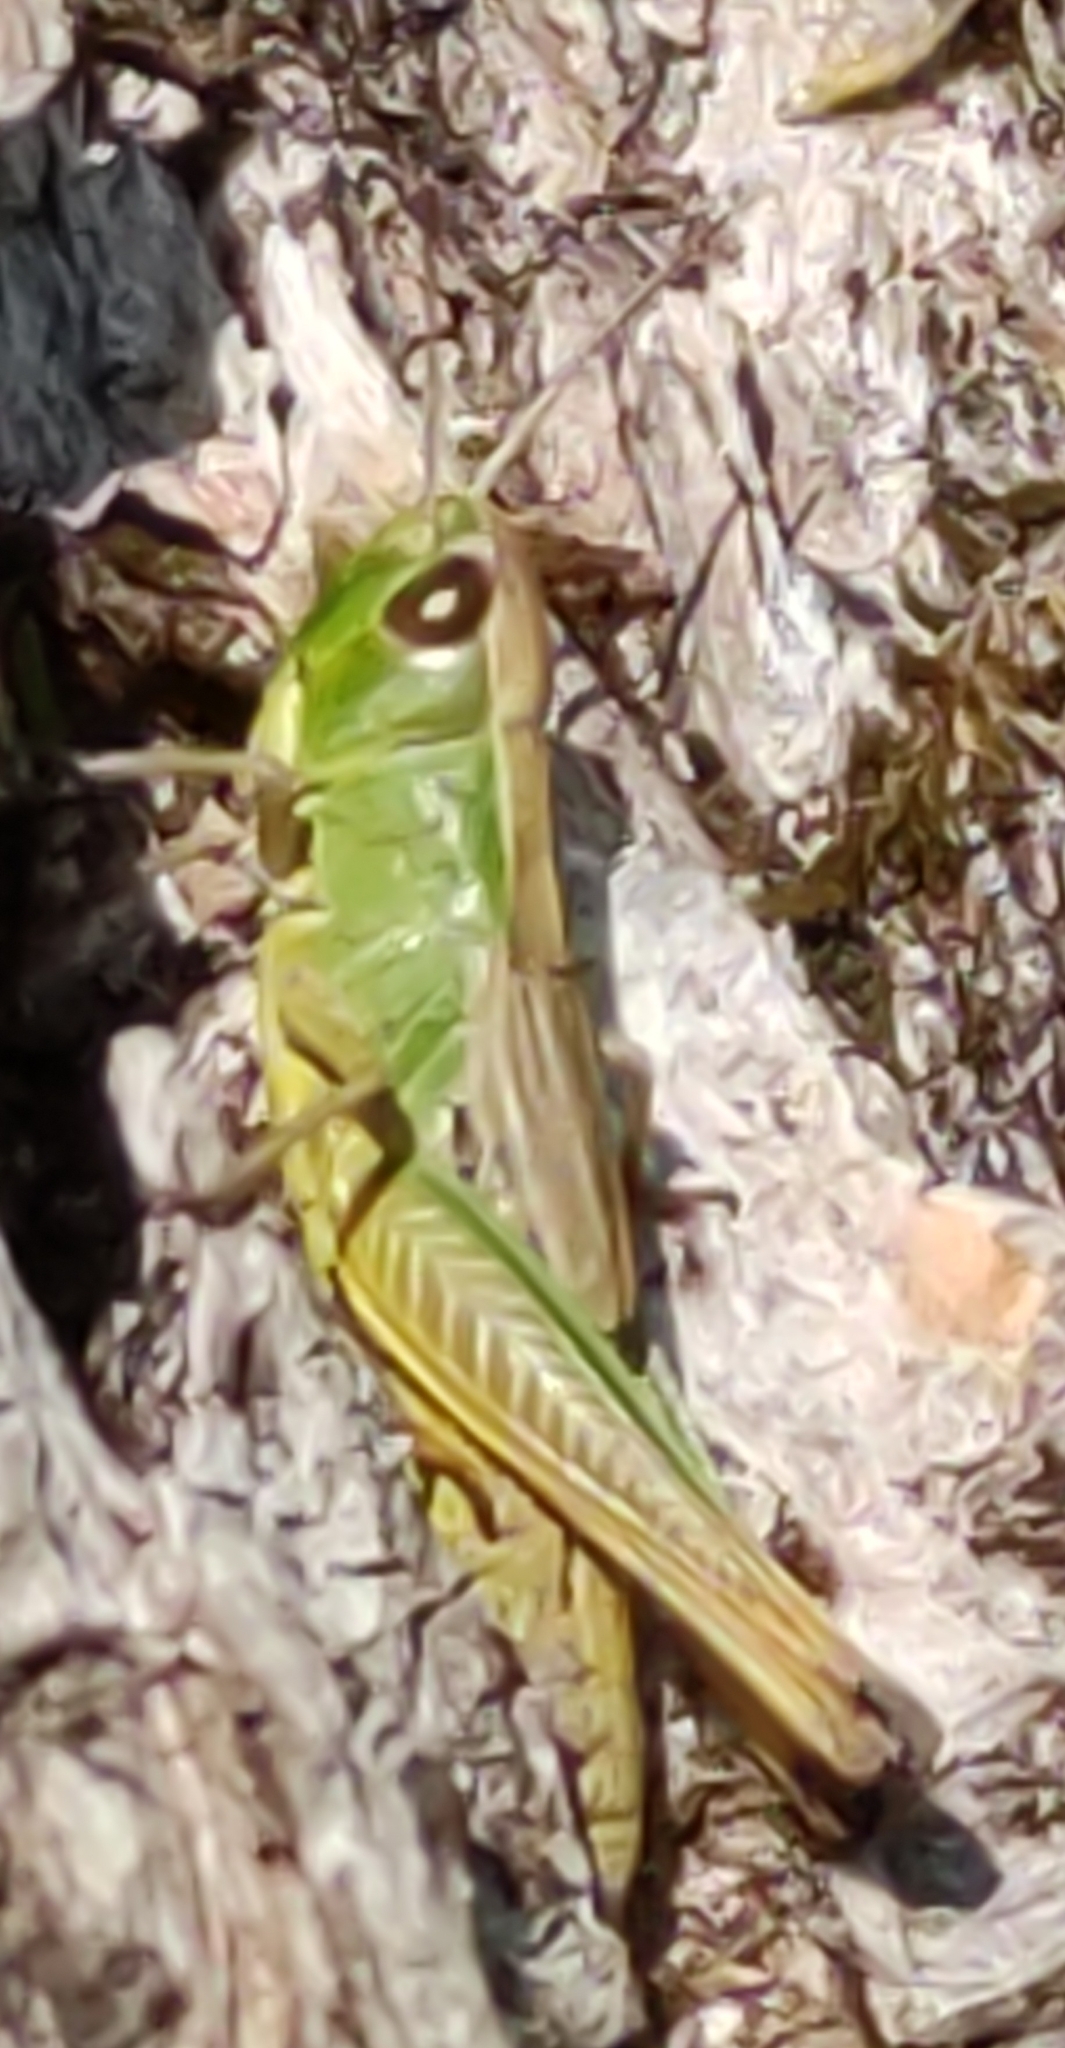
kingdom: Animalia
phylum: Arthropoda
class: Insecta
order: Orthoptera
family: Acrididae
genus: Pseudochorthippus
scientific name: Pseudochorthippus parallelus
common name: Meadow grasshopper
